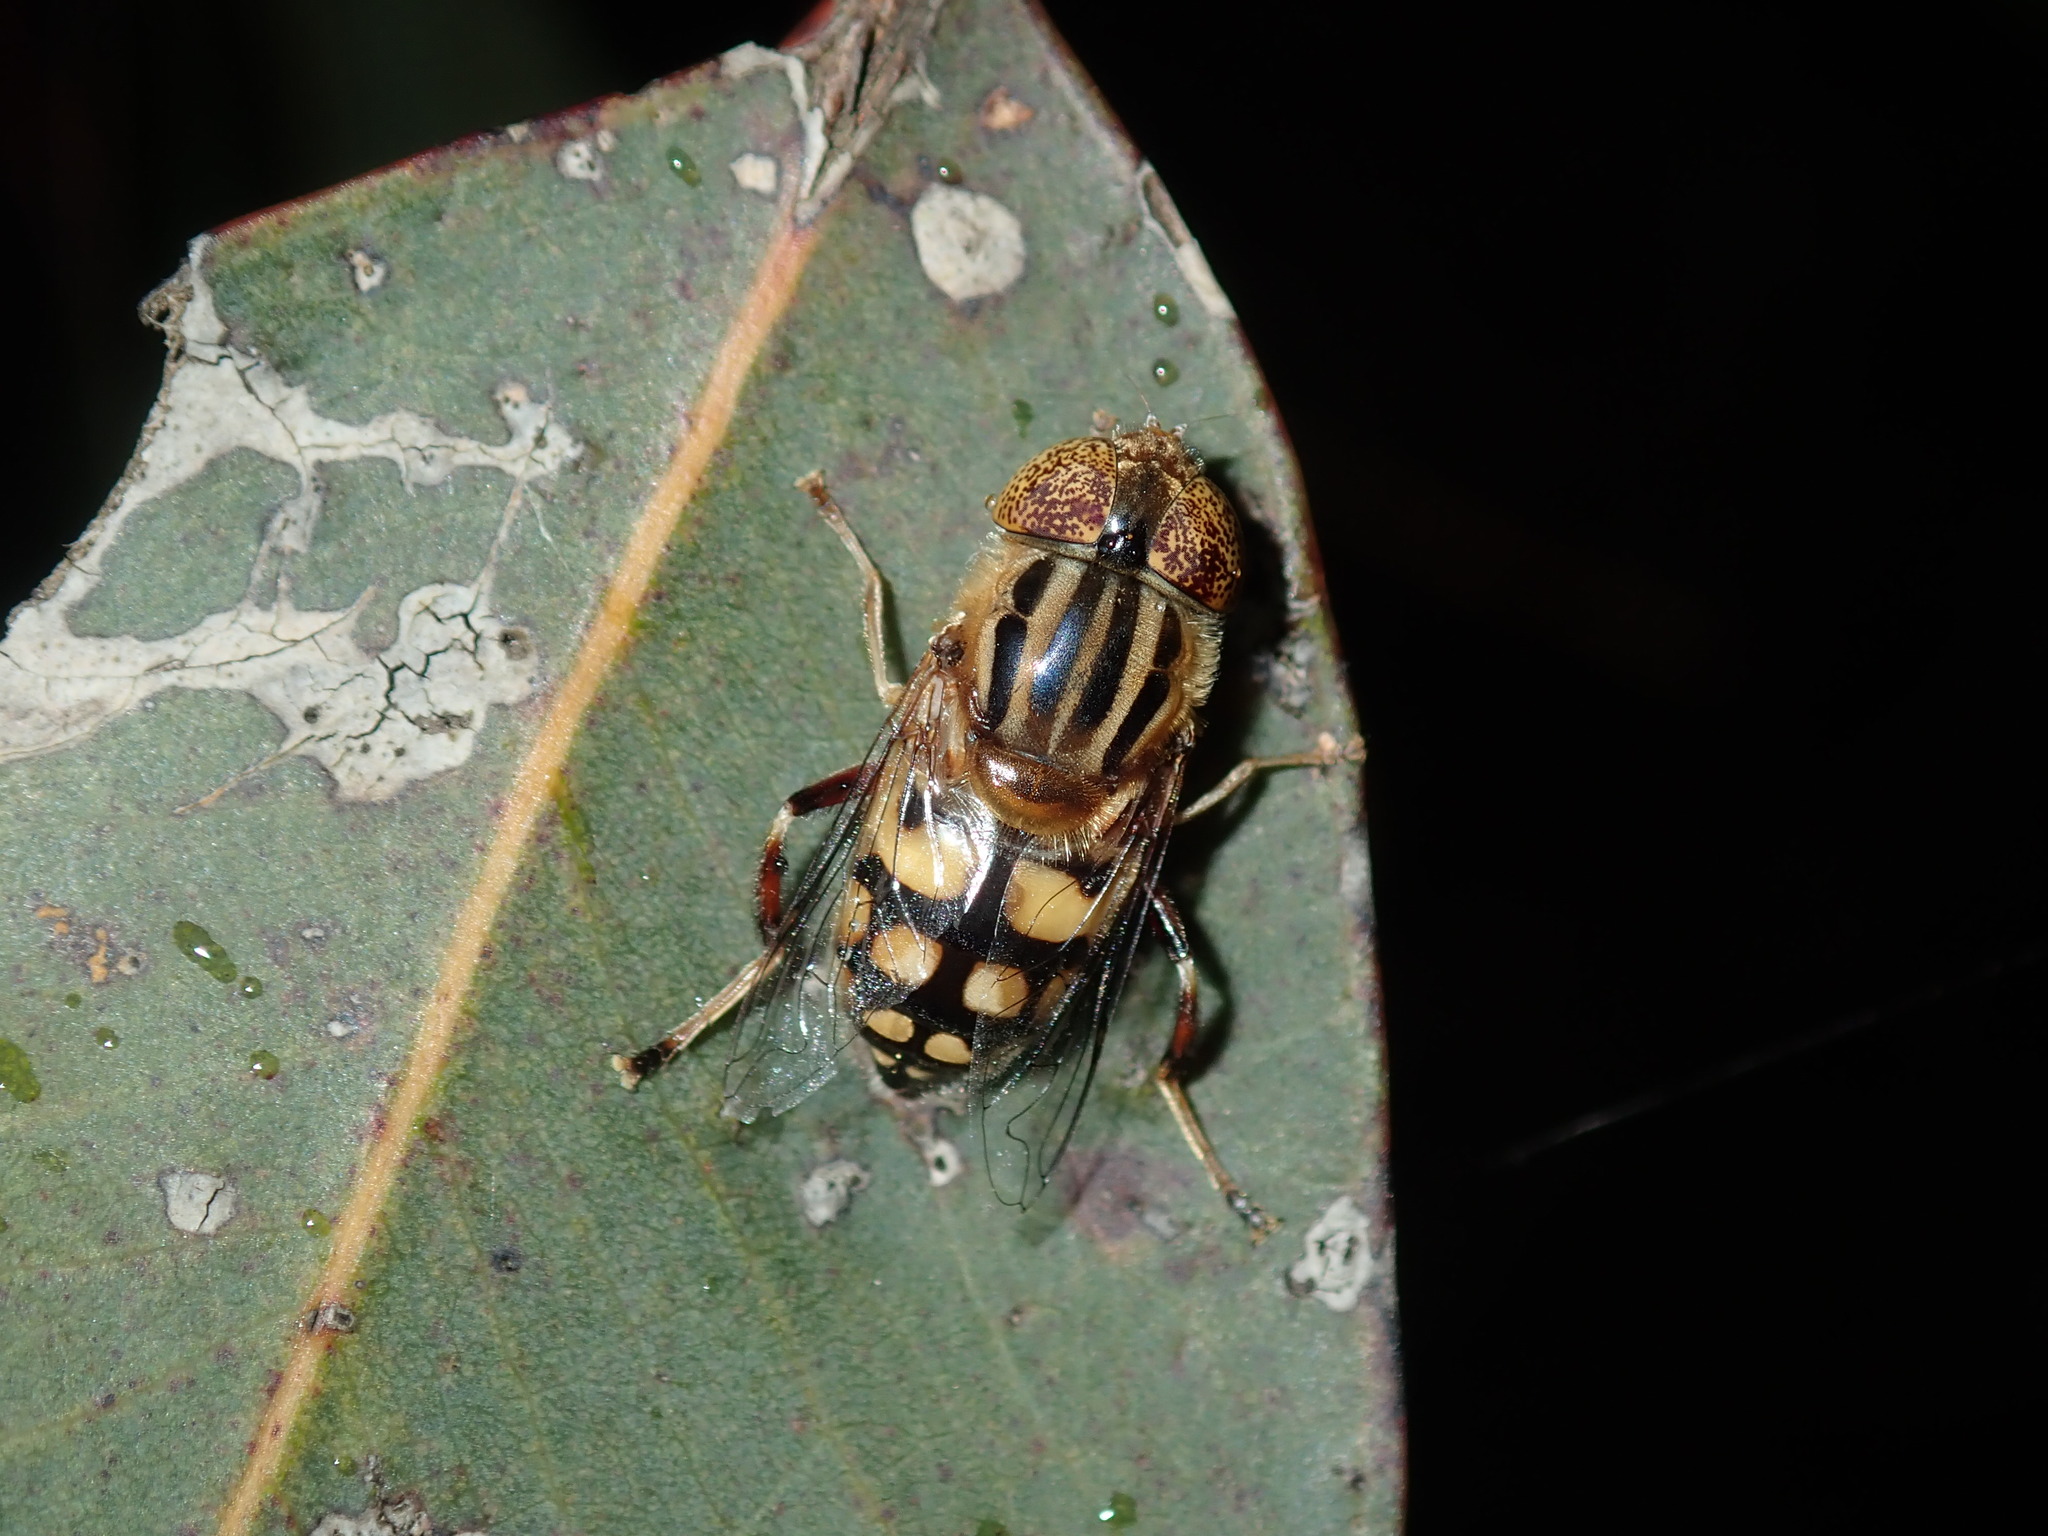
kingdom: Animalia
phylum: Arthropoda
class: Insecta
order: Diptera
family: Syrphidae
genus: Eristalinus
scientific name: Eristalinus punctulatus
